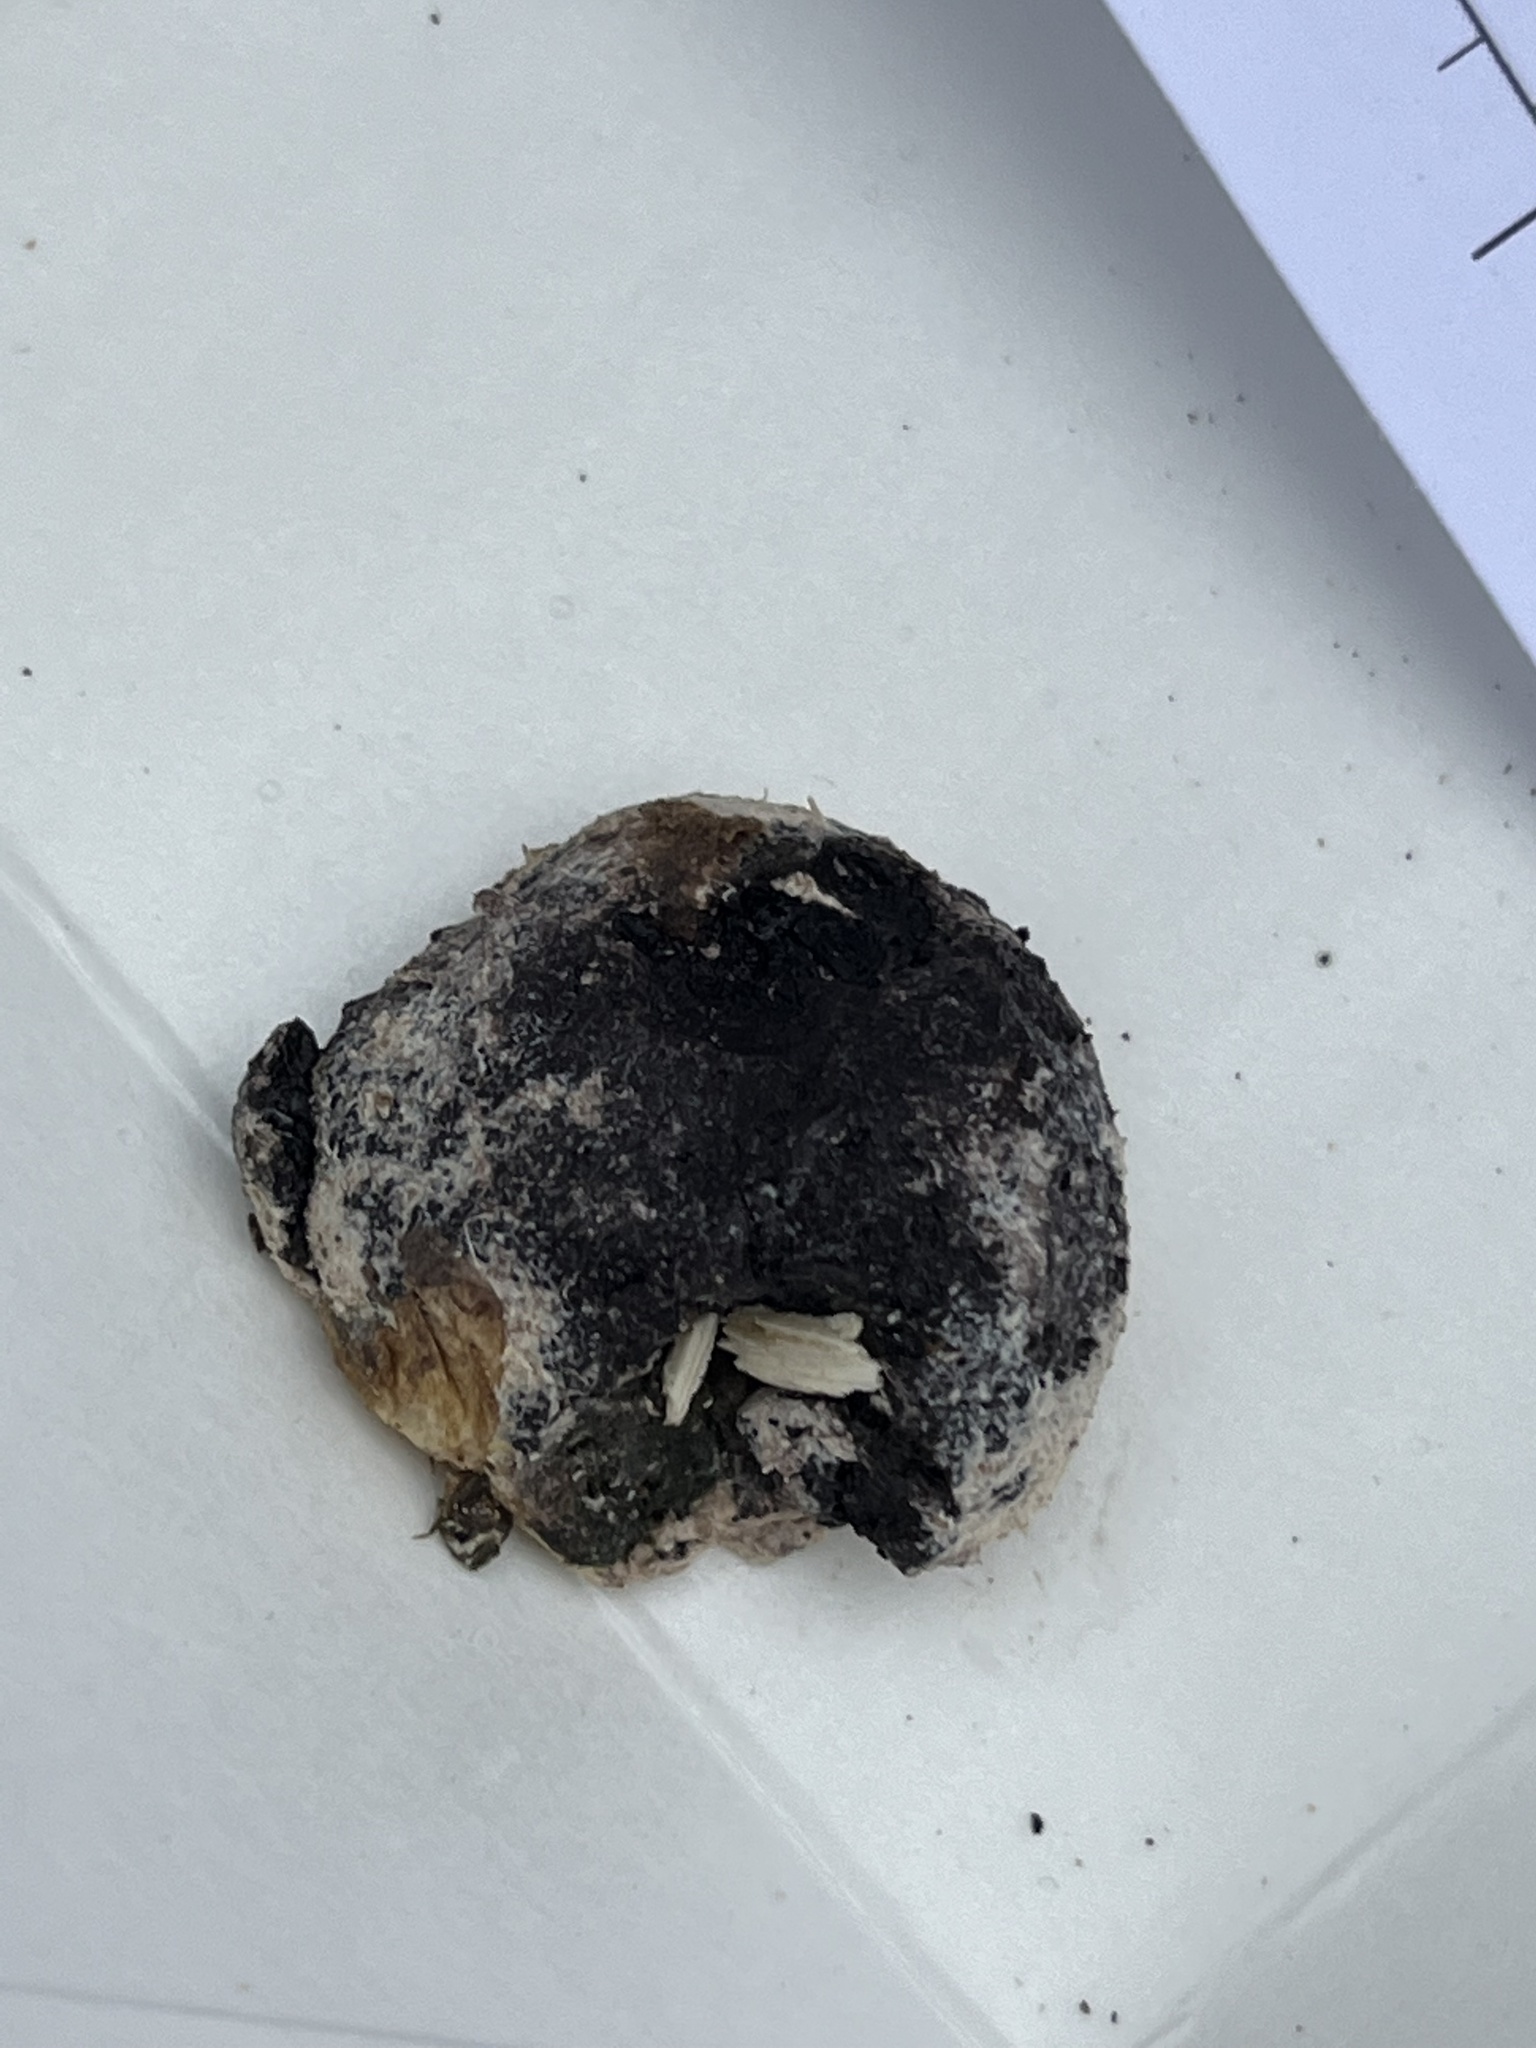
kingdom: Fungi
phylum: Ascomycota
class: Sordariomycetes
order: Boliniales
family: Boliniaceae
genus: Camarops
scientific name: Camarops petersii
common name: Dog's nose fungus
